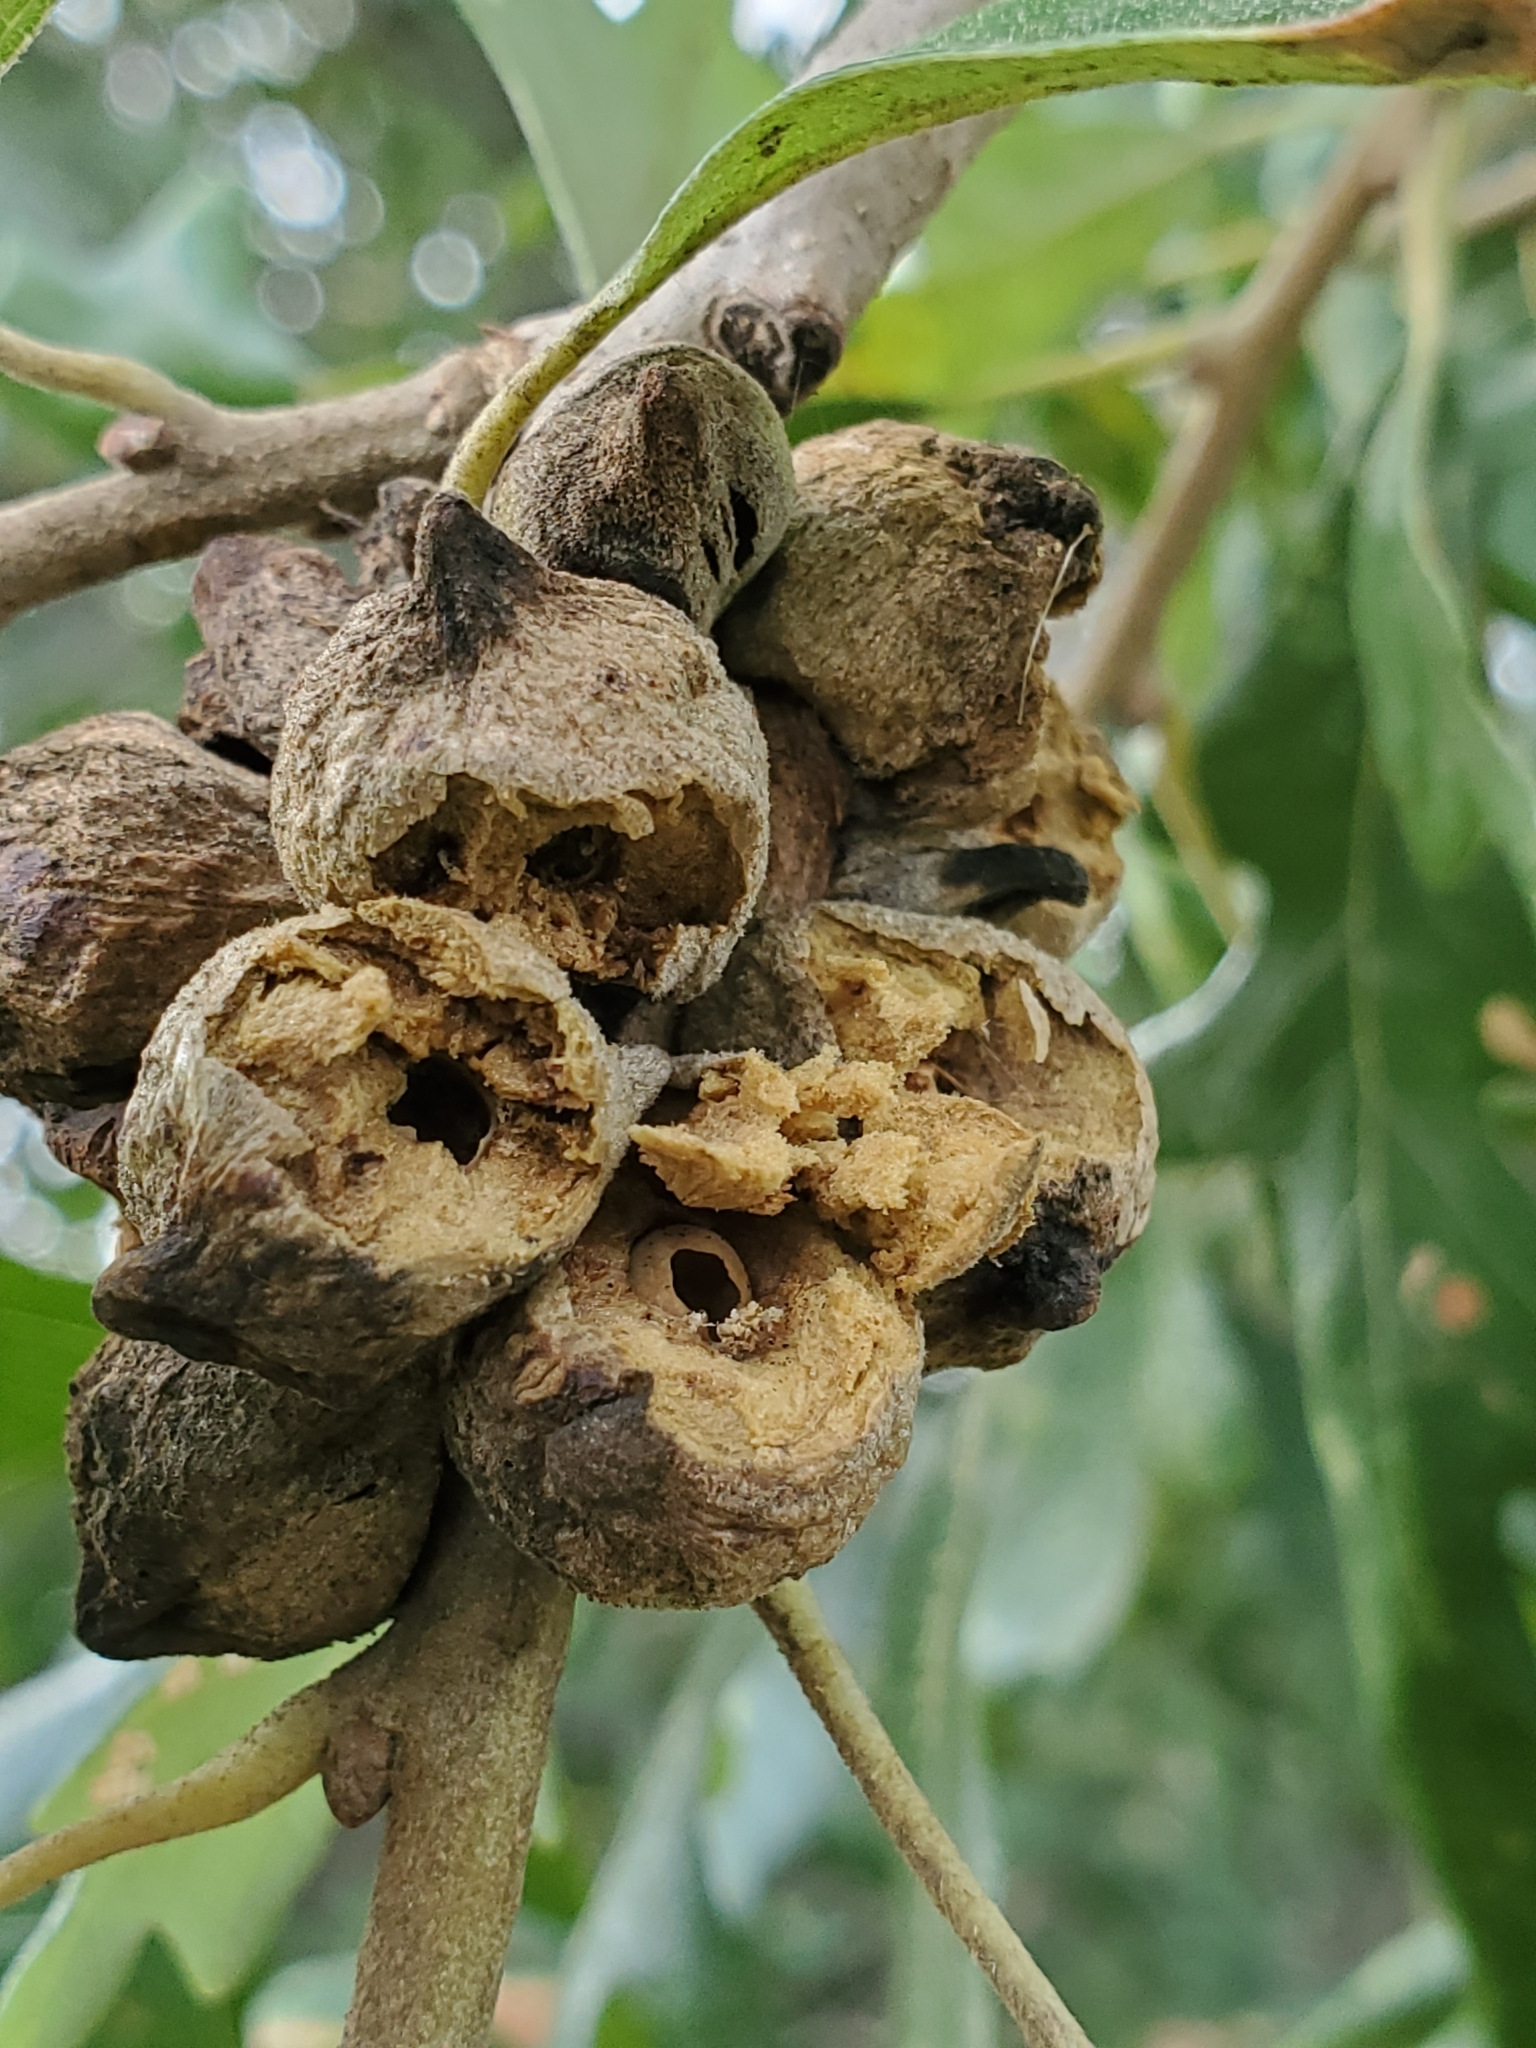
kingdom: Animalia
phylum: Arthropoda
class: Insecta
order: Hymenoptera
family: Cynipidae
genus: Disholcaspis
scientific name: Disholcaspis
